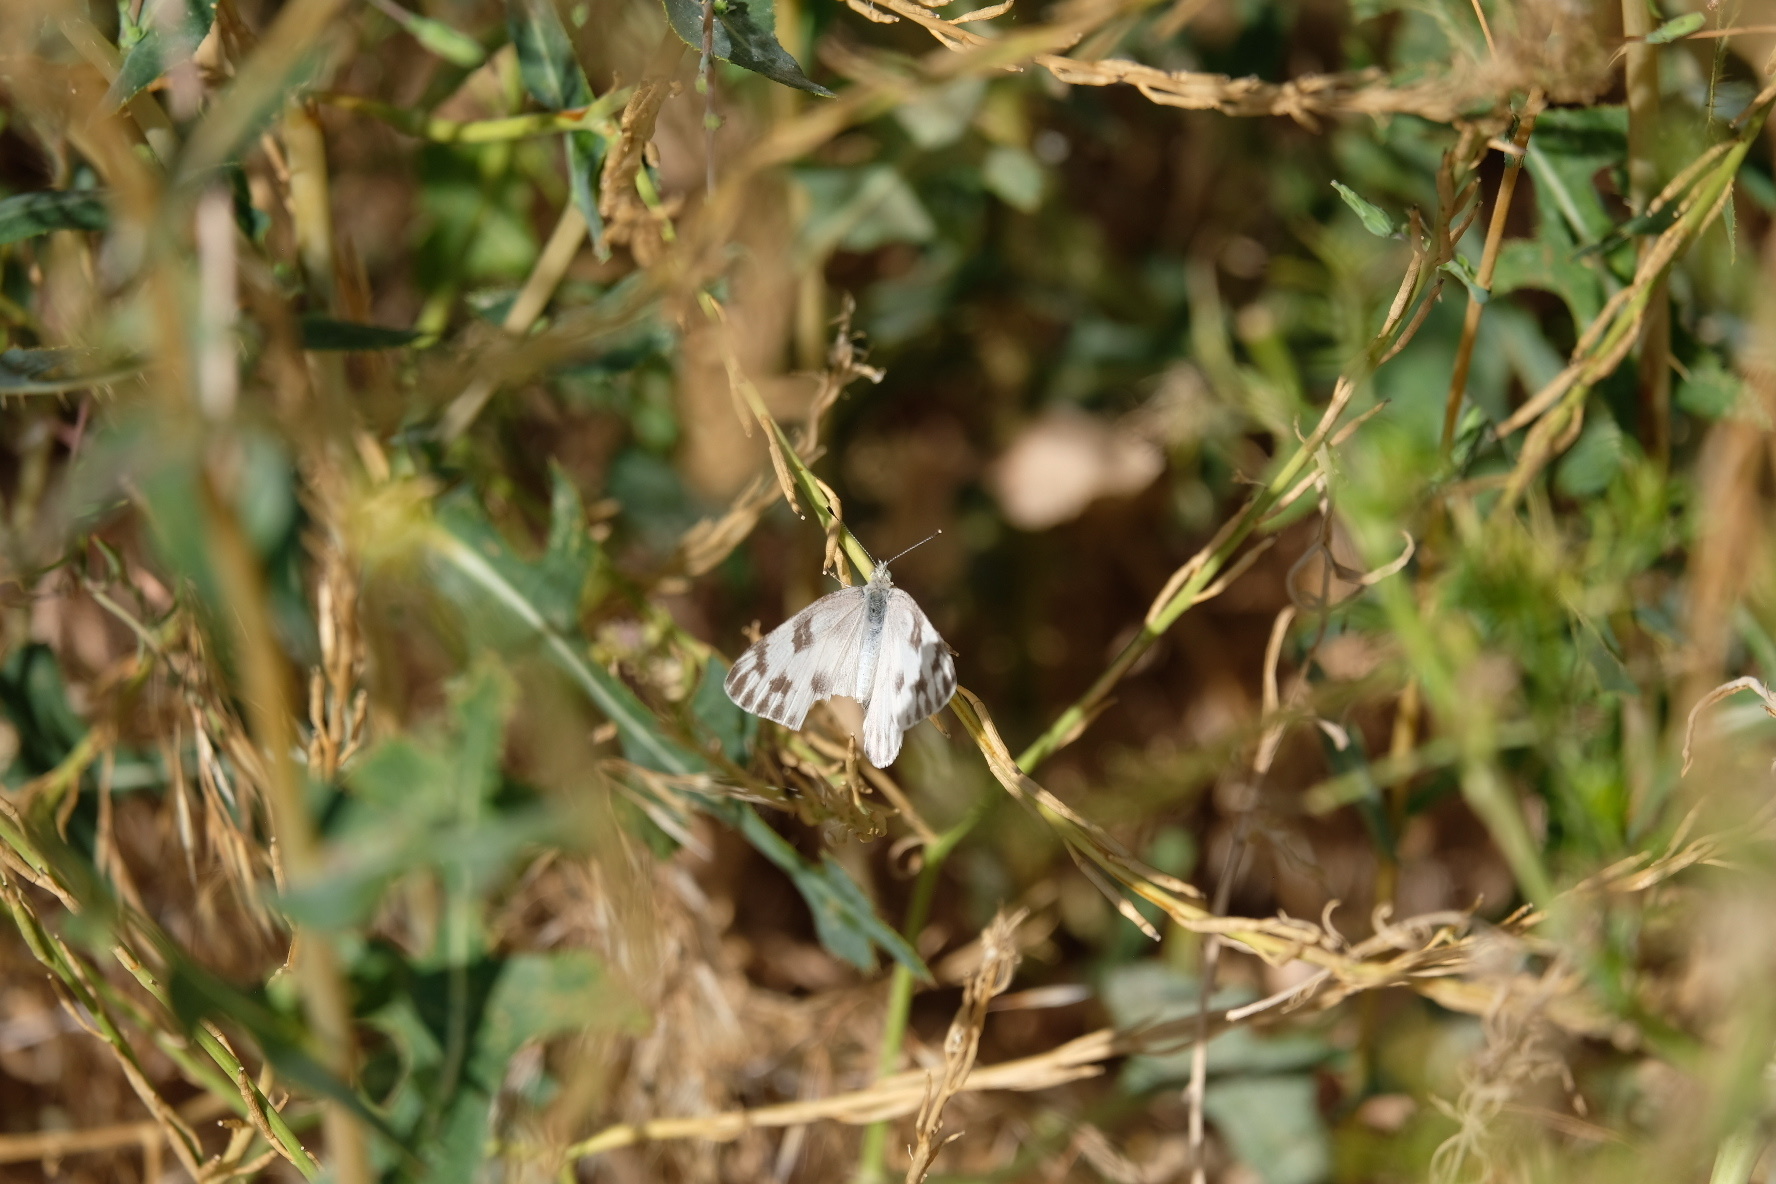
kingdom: Animalia
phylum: Arthropoda
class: Insecta
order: Lepidoptera
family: Pieridae
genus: Pontia
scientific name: Pontia protodice
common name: Checkered white
